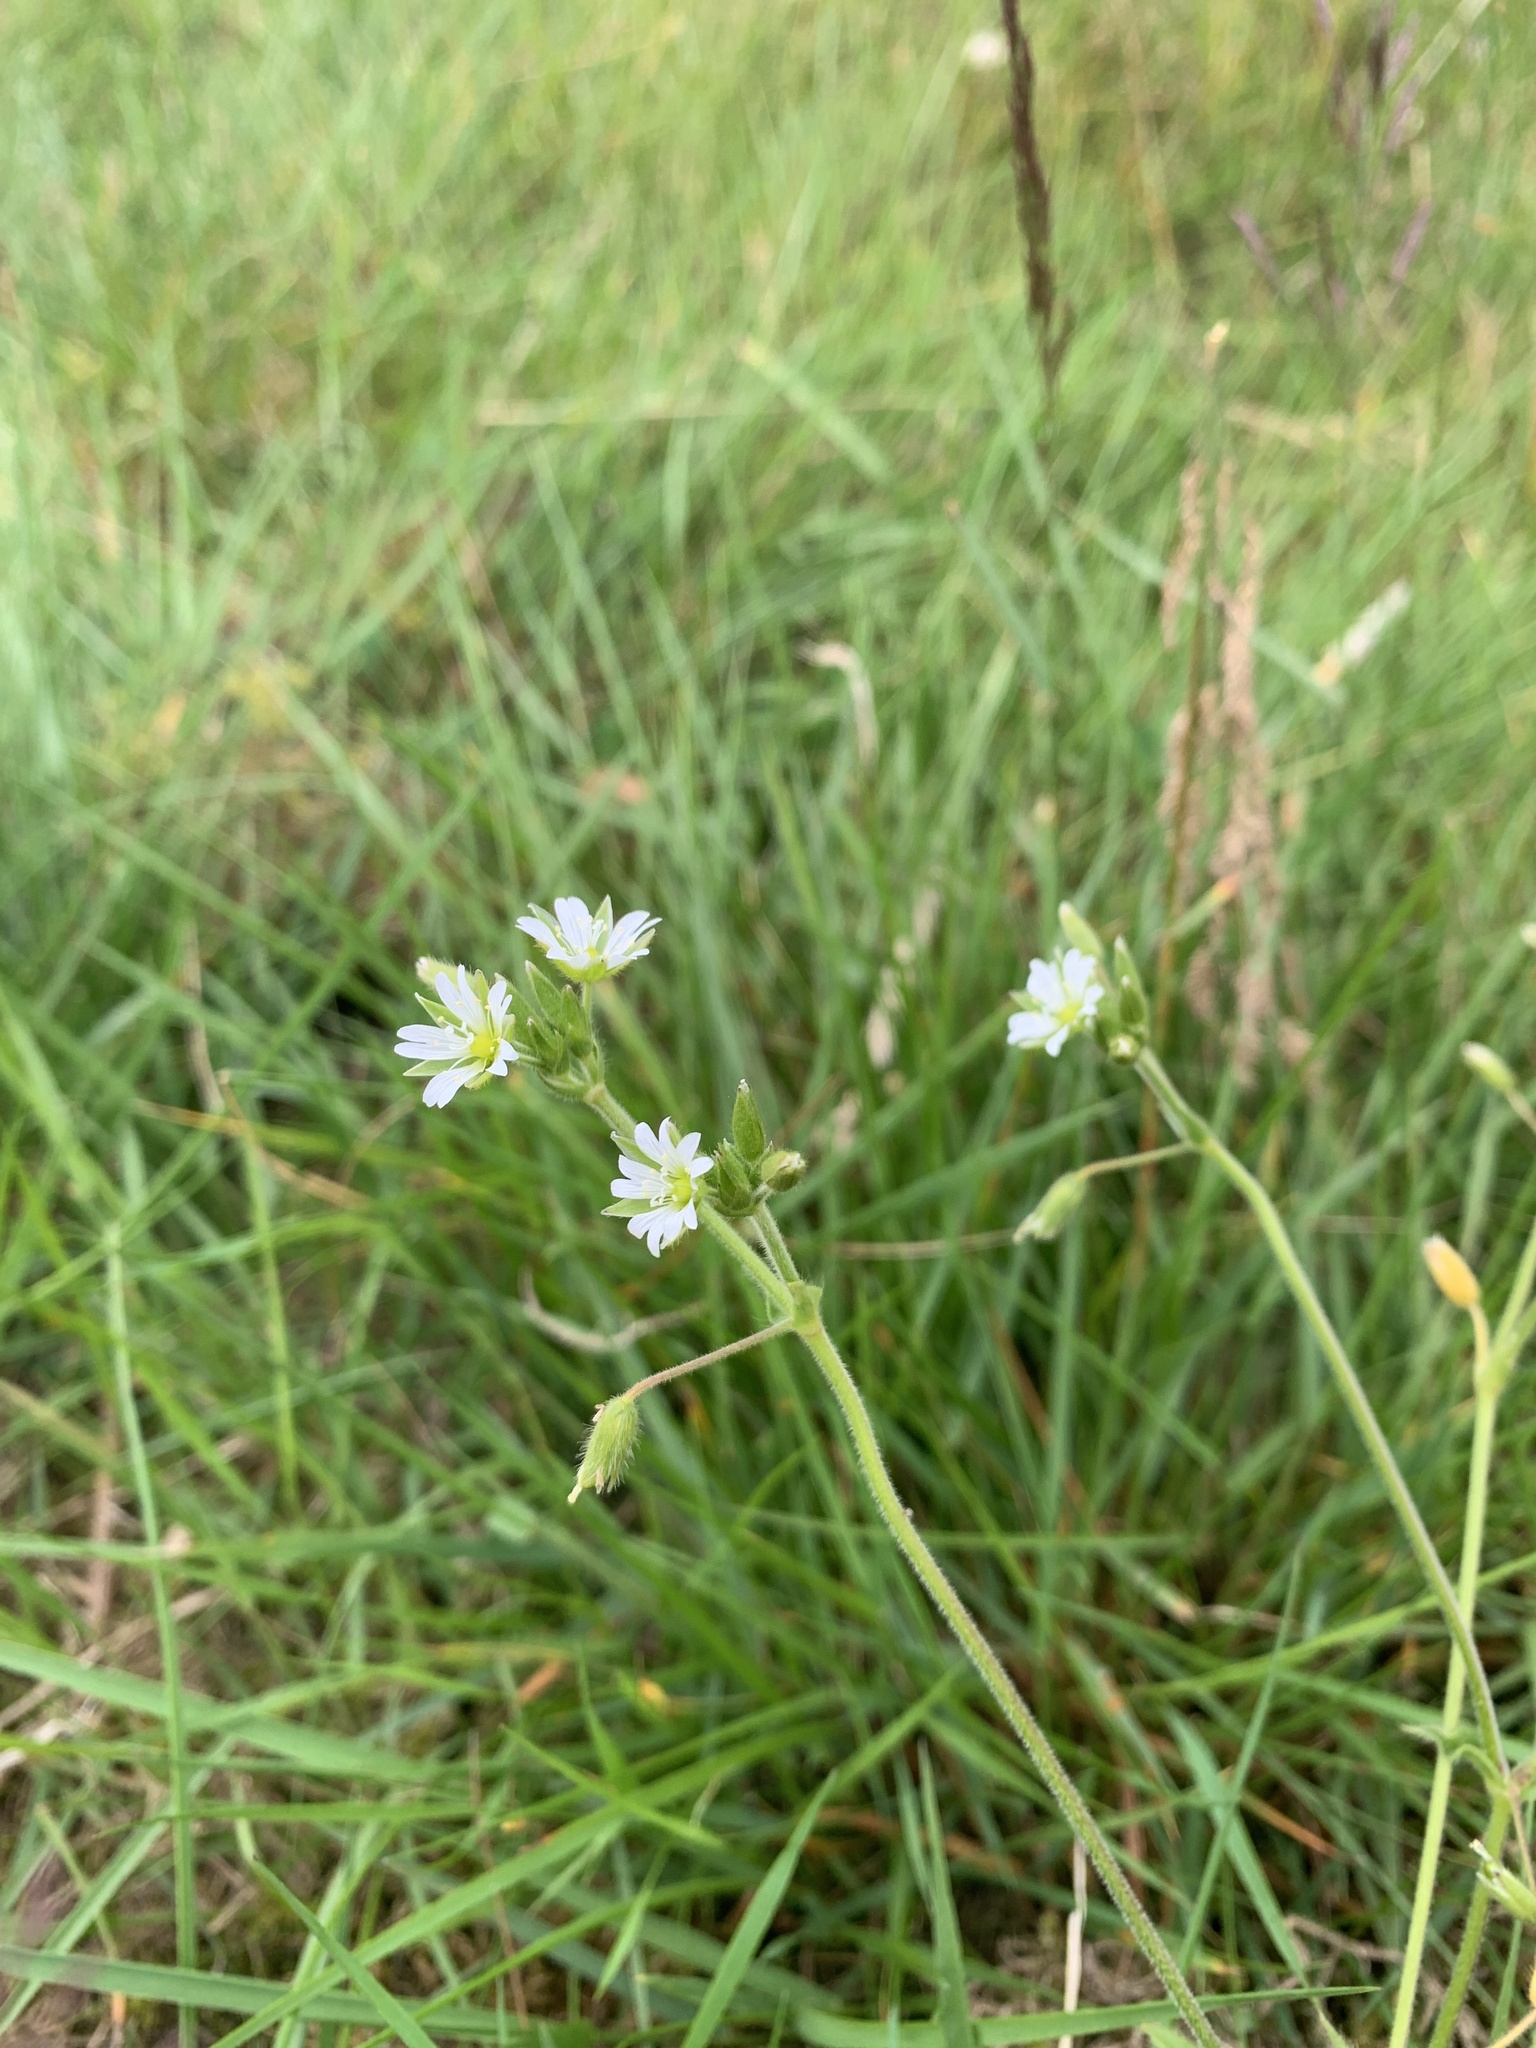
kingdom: Plantae
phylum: Tracheophyta
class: Magnoliopsida
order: Caryophyllales
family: Caryophyllaceae
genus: Cerastium
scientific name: Cerastium fontanum
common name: Common mouse-ear
